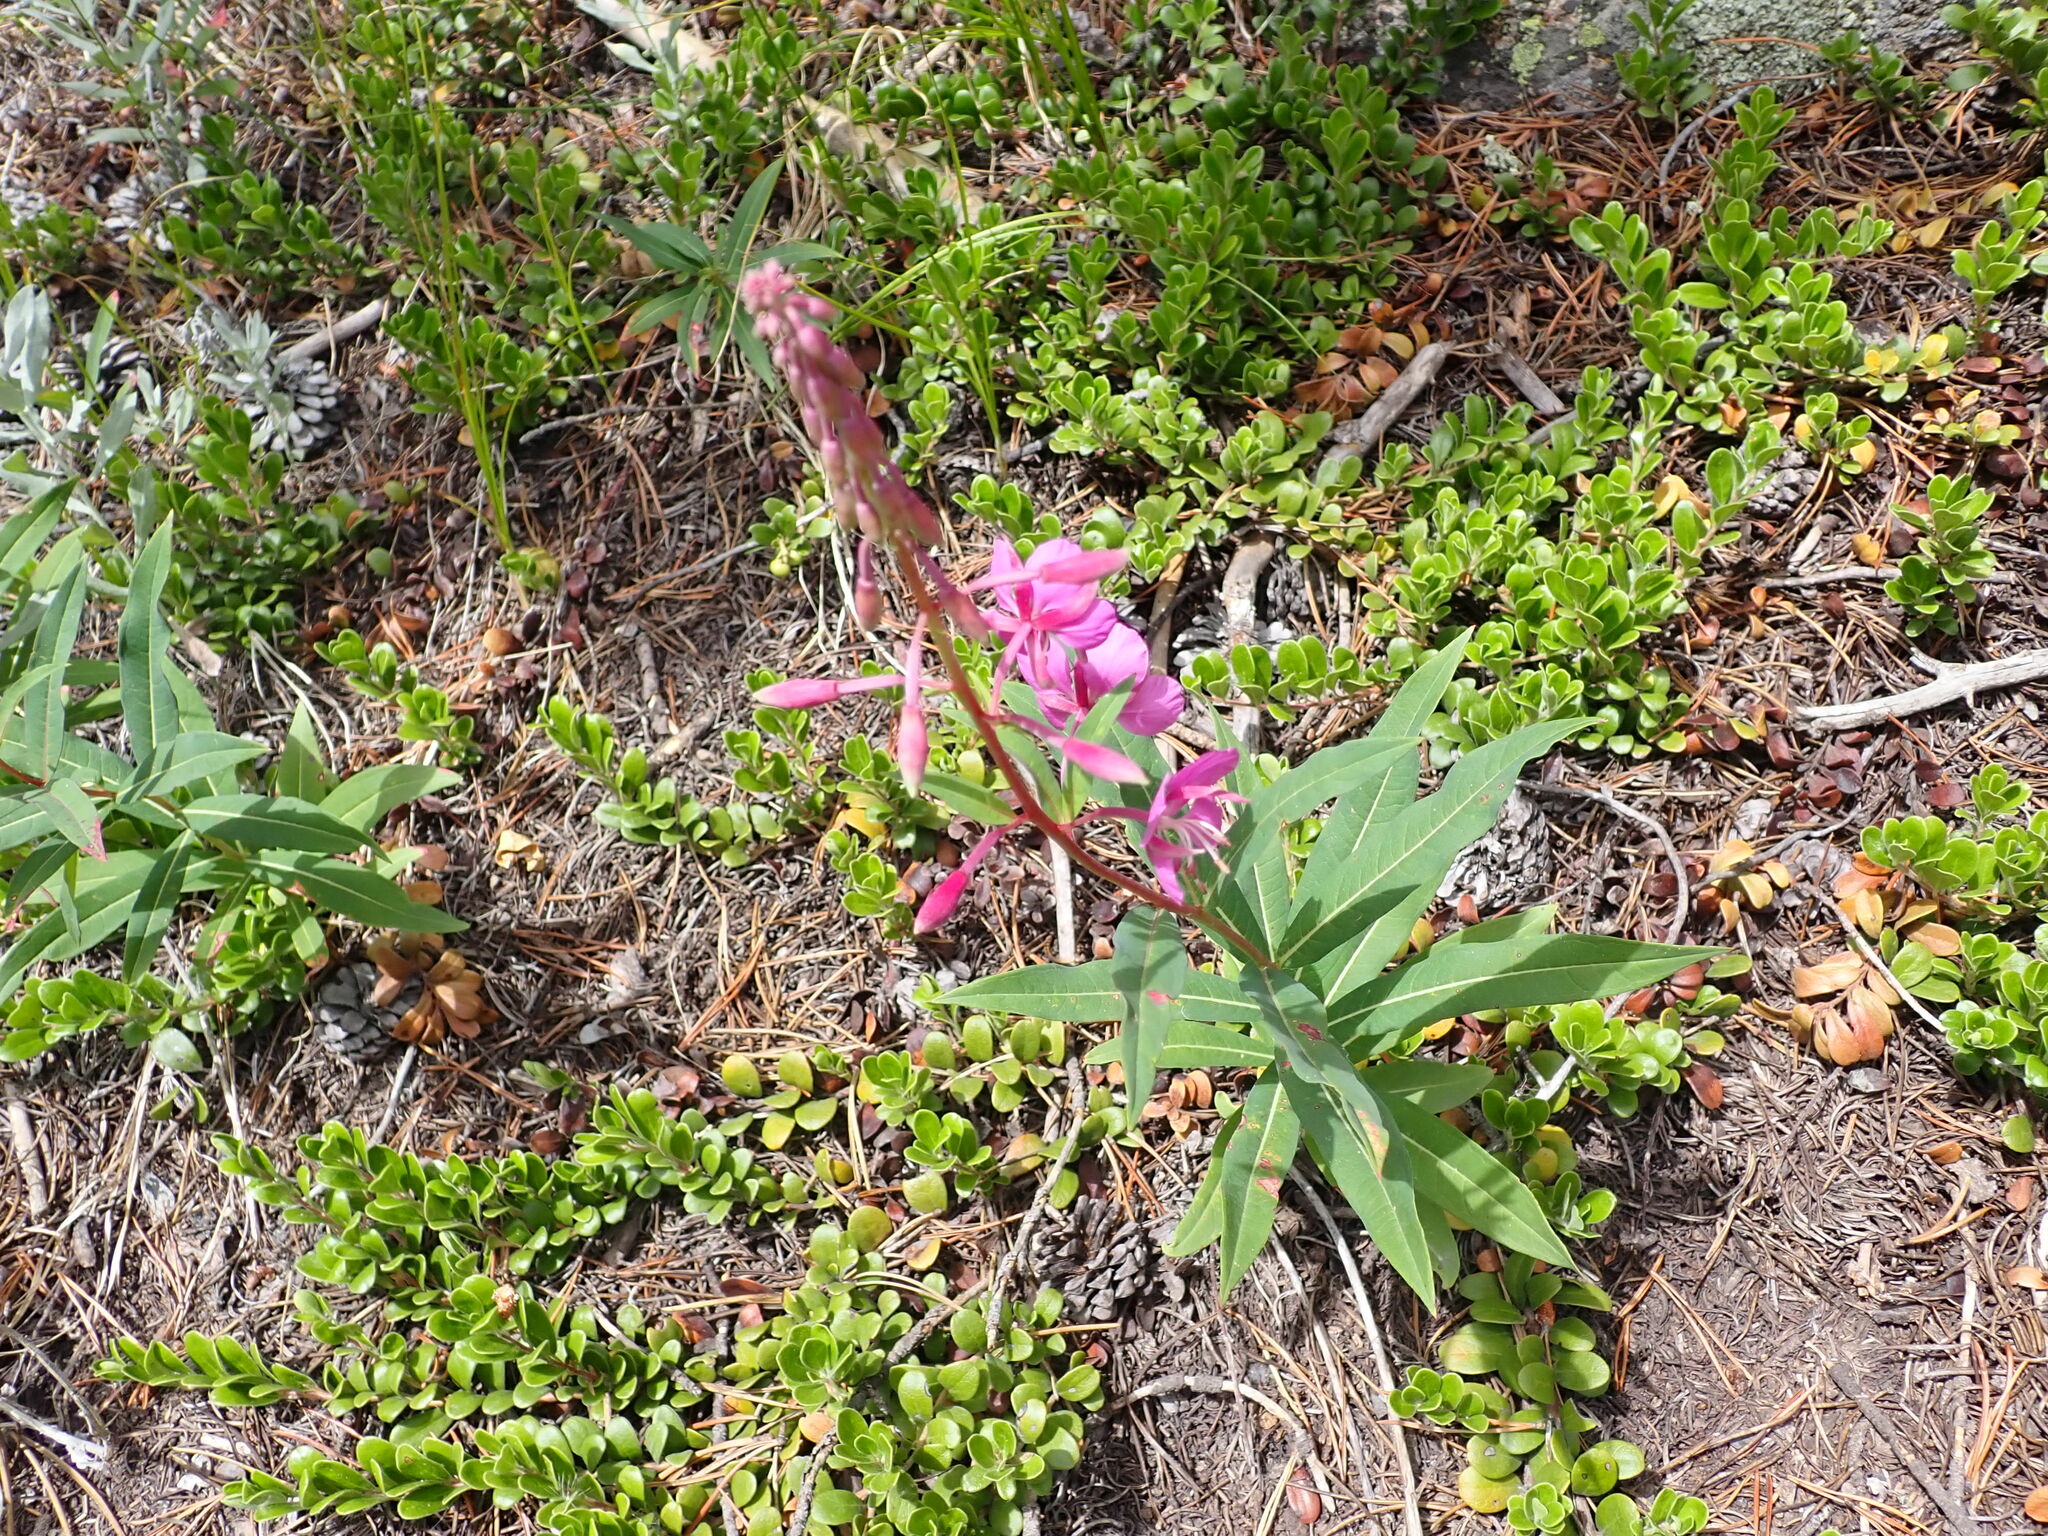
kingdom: Plantae
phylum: Tracheophyta
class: Magnoliopsida
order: Myrtales
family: Onagraceae
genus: Chamaenerion
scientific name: Chamaenerion angustifolium
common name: Fireweed
